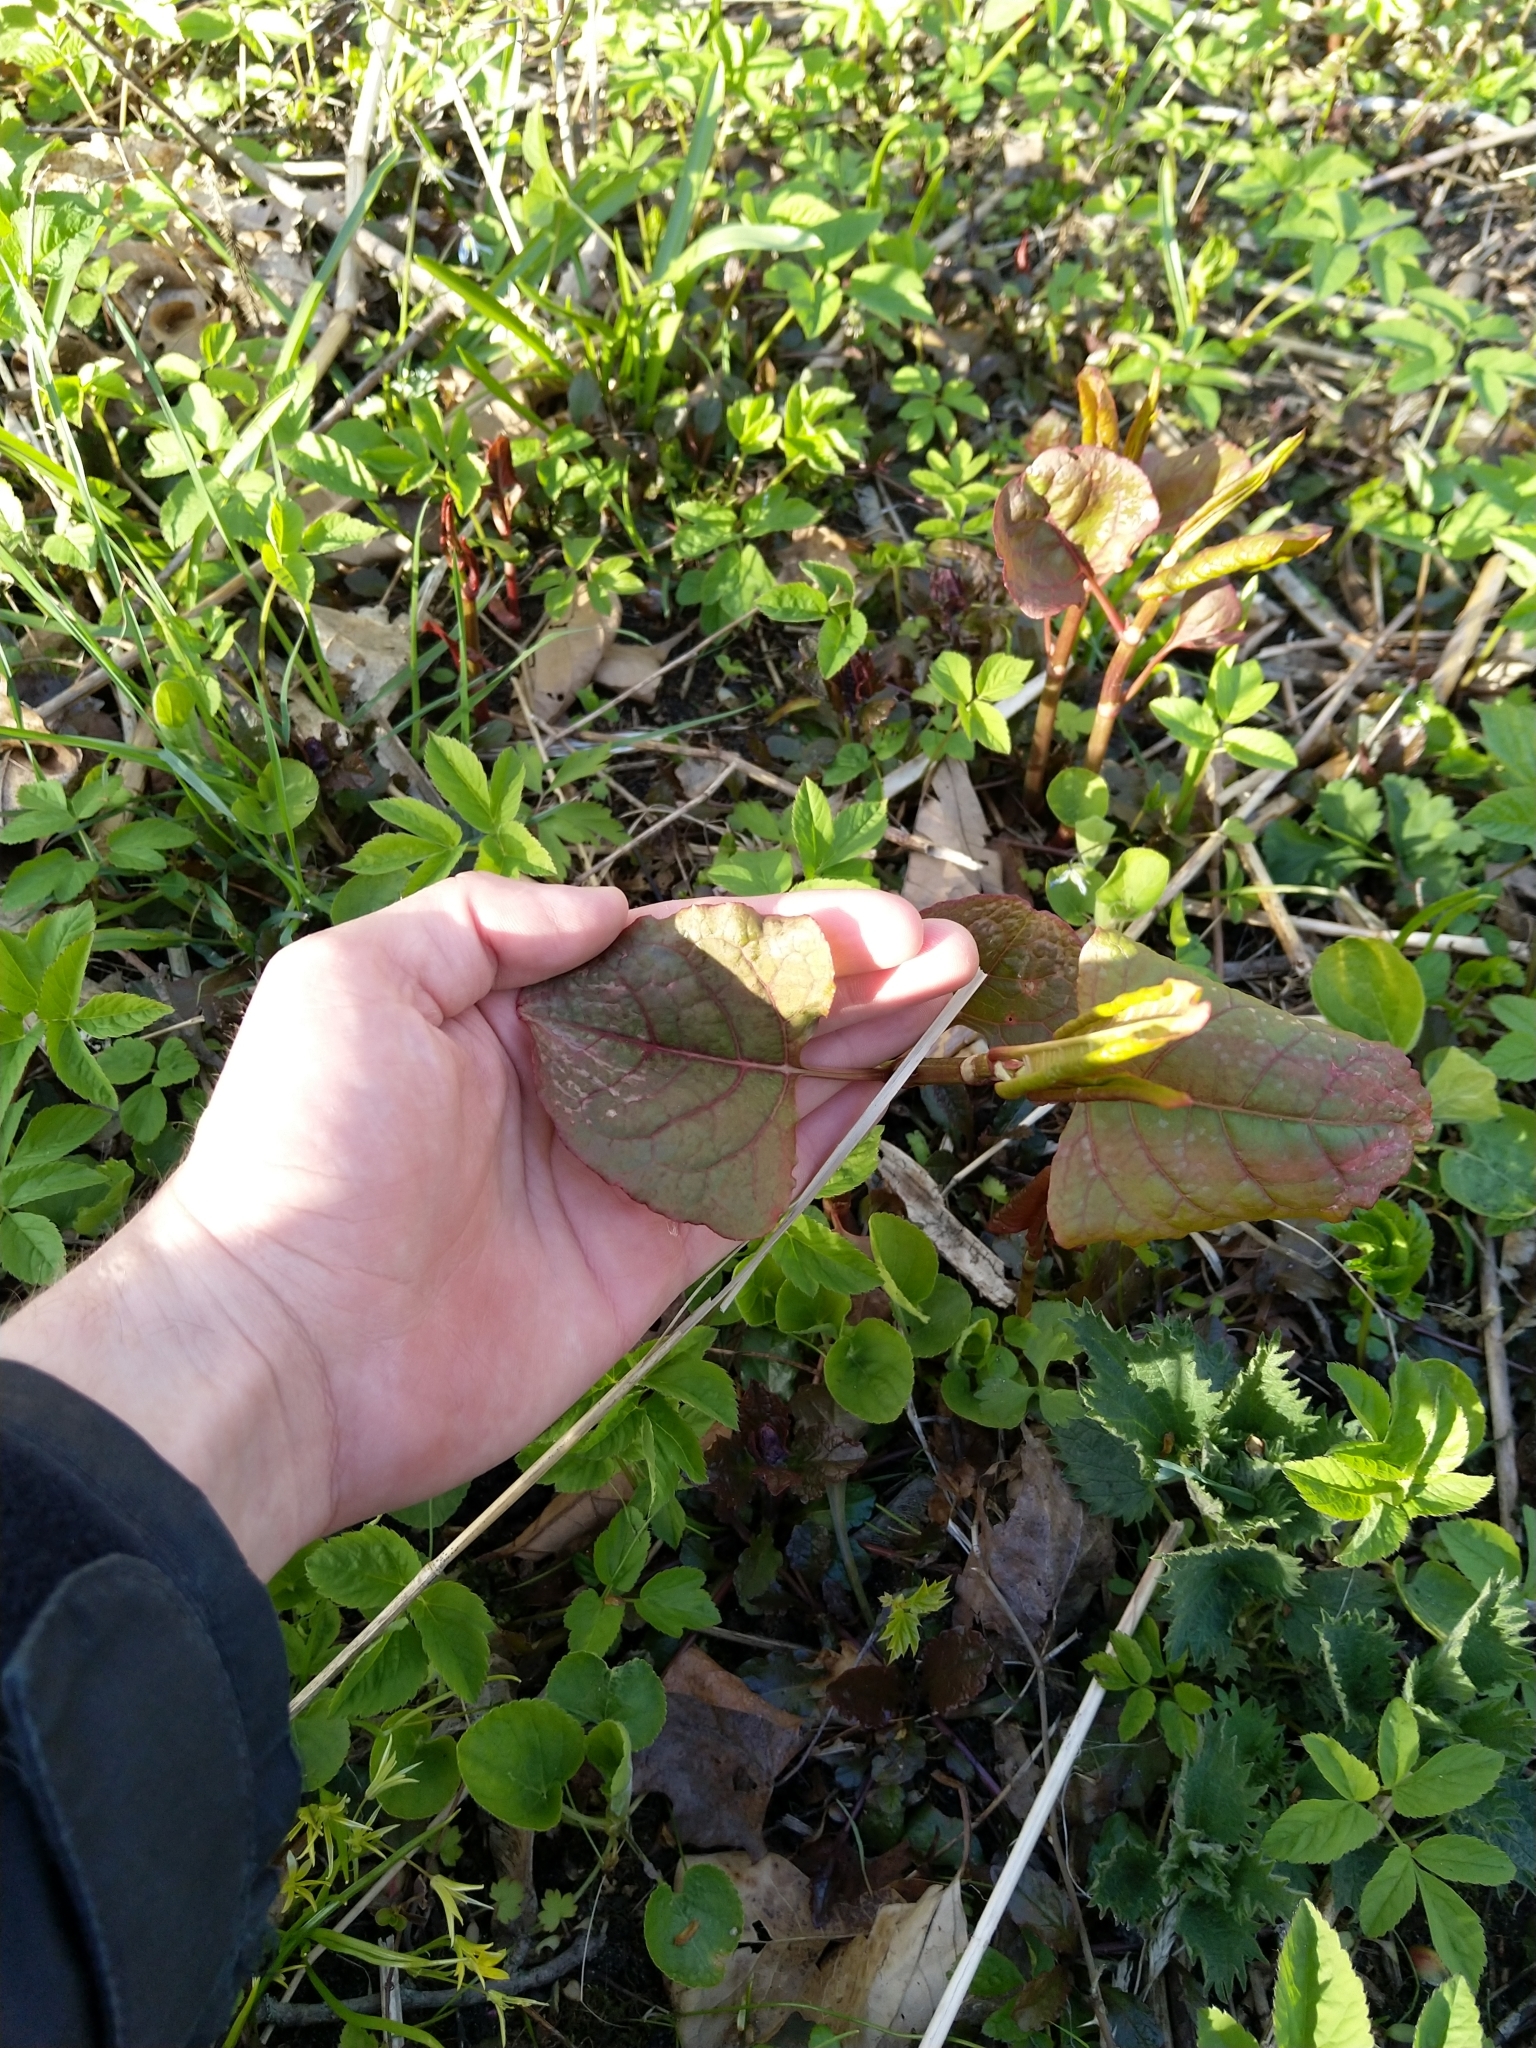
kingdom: Plantae
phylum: Tracheophyta
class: Magnoliopsida
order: Caryophyllales
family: Polygonaceae
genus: Reynoutria
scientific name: Reynoutria sachalinensis
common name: Giant knotweed
